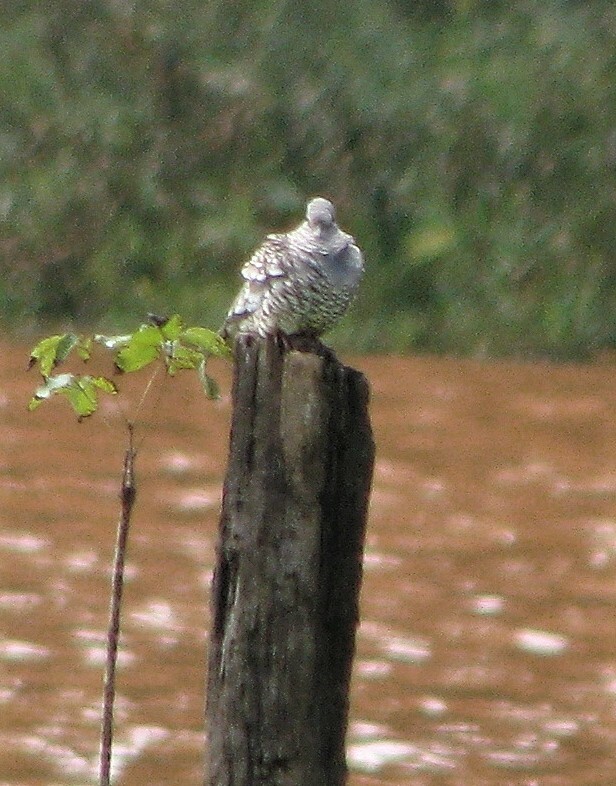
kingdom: Animalia
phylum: Chordata
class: Aves
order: Columbiformes
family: Columbidae
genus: Columbina
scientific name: Columbina squammata
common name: Scaled dove
